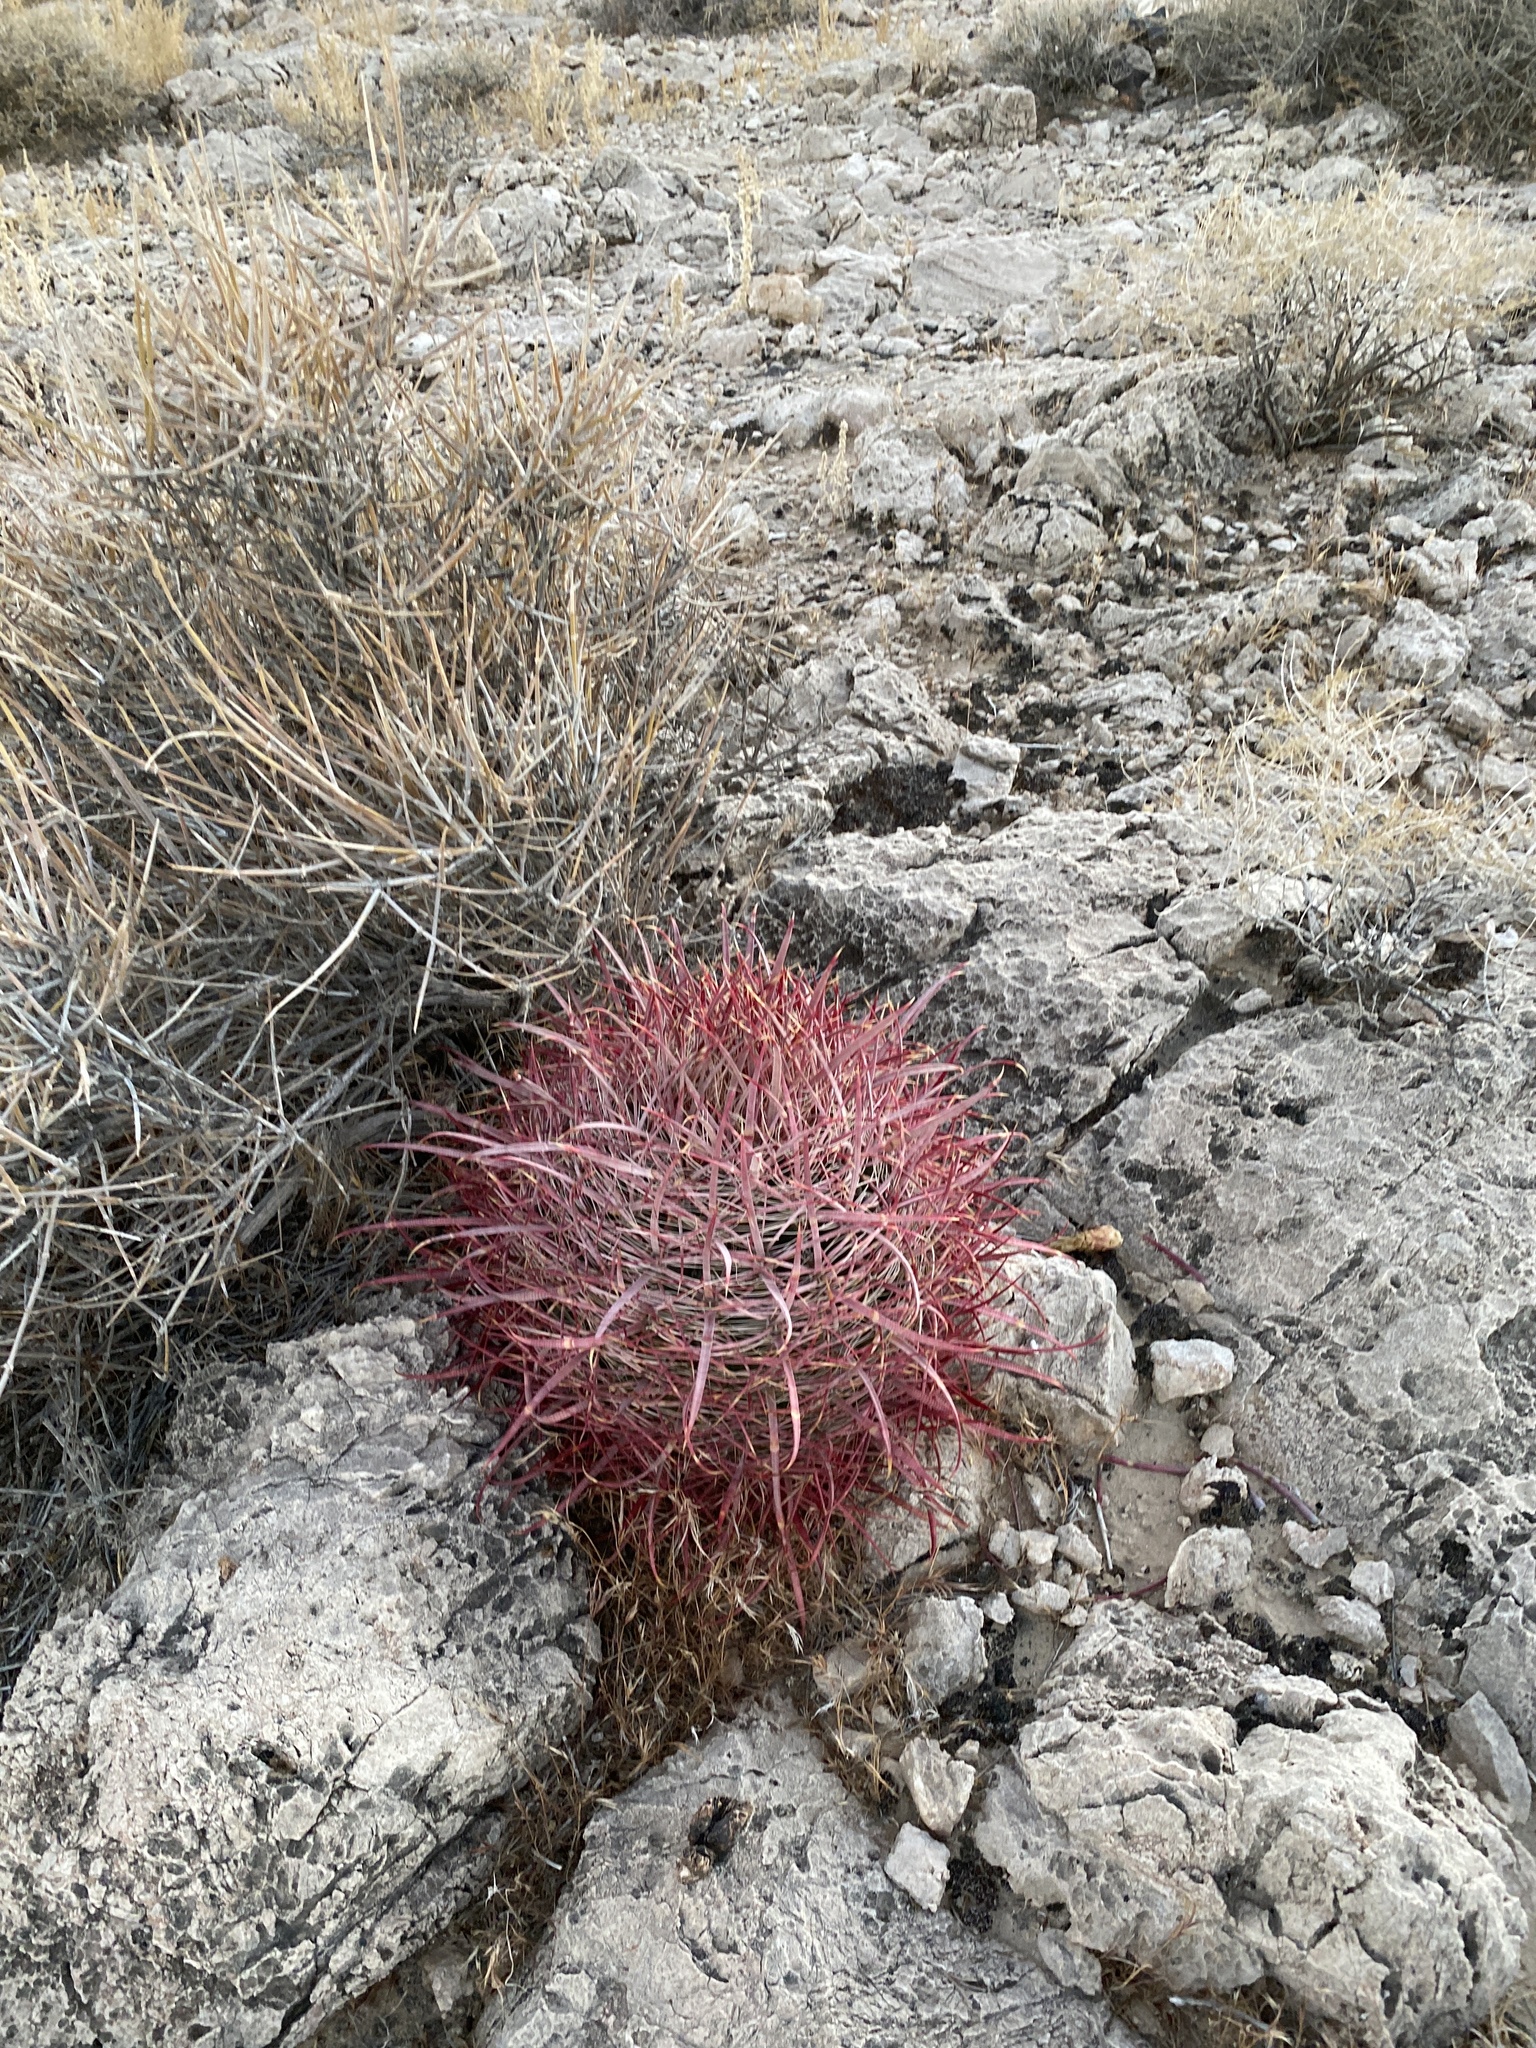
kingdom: Plantae
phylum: Tracheophyta
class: Magnoliopsida
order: Caryophyllales
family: Cactaceae
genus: Ferocactus
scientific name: Ferocactus cylindraceus
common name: California barrel cactus
